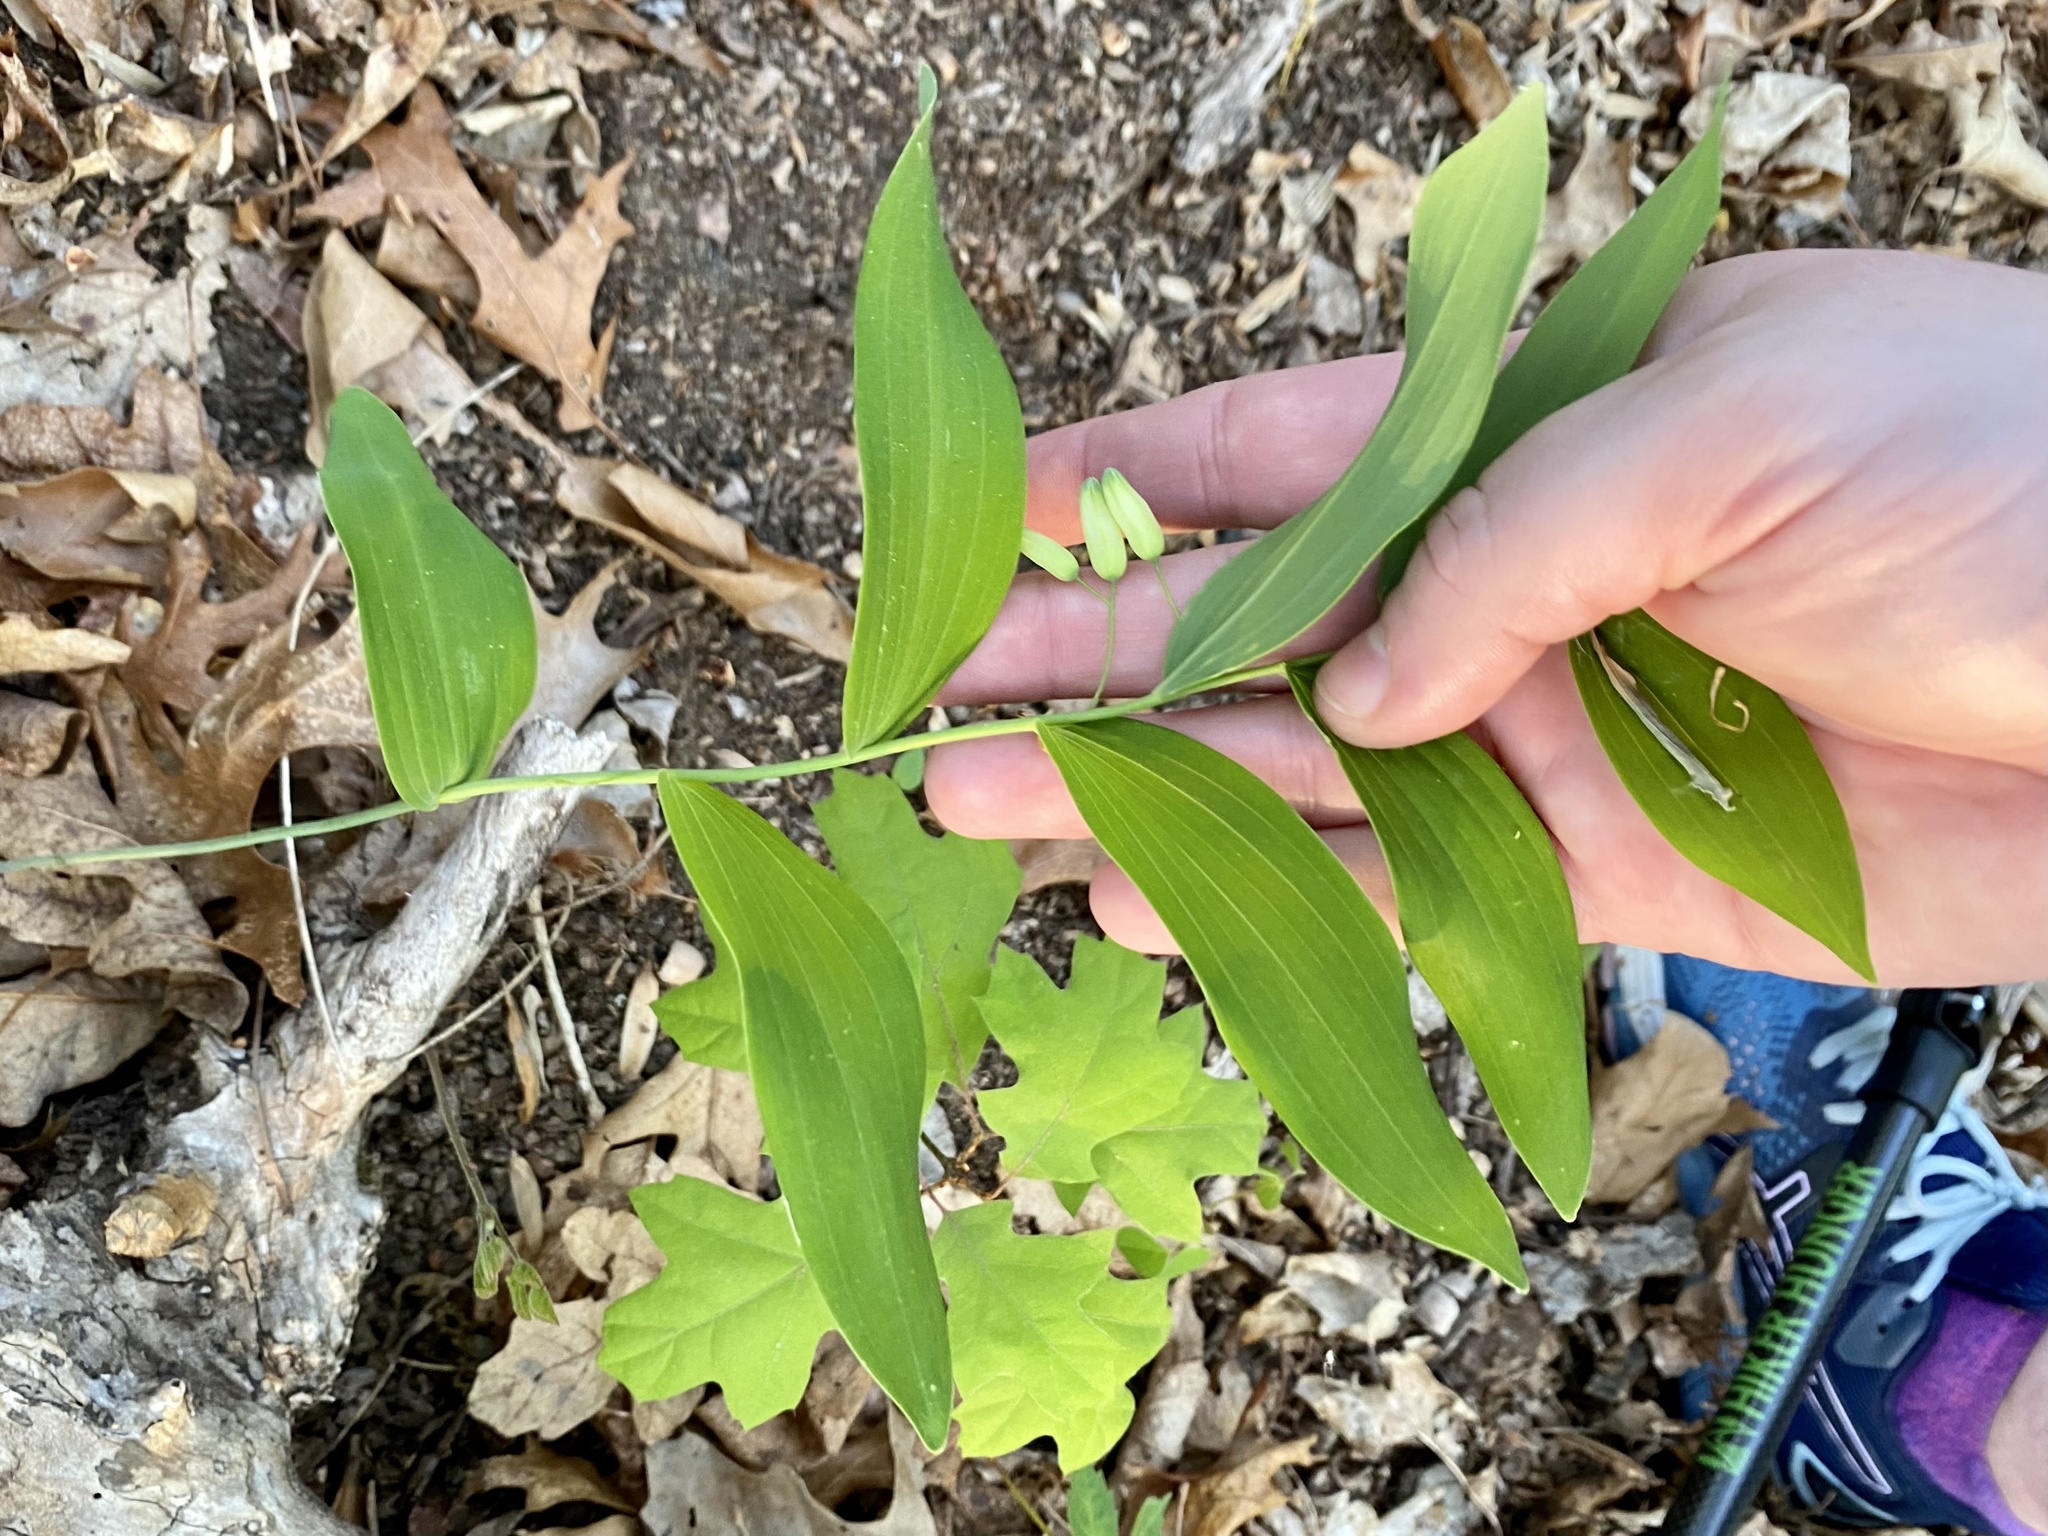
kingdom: Plantae
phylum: Tracheophyta
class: Liliopsida
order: Asparagales
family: Asparagaceae
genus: Polygonatum
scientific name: Polygonatum biflorum
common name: American solomon's-seal
